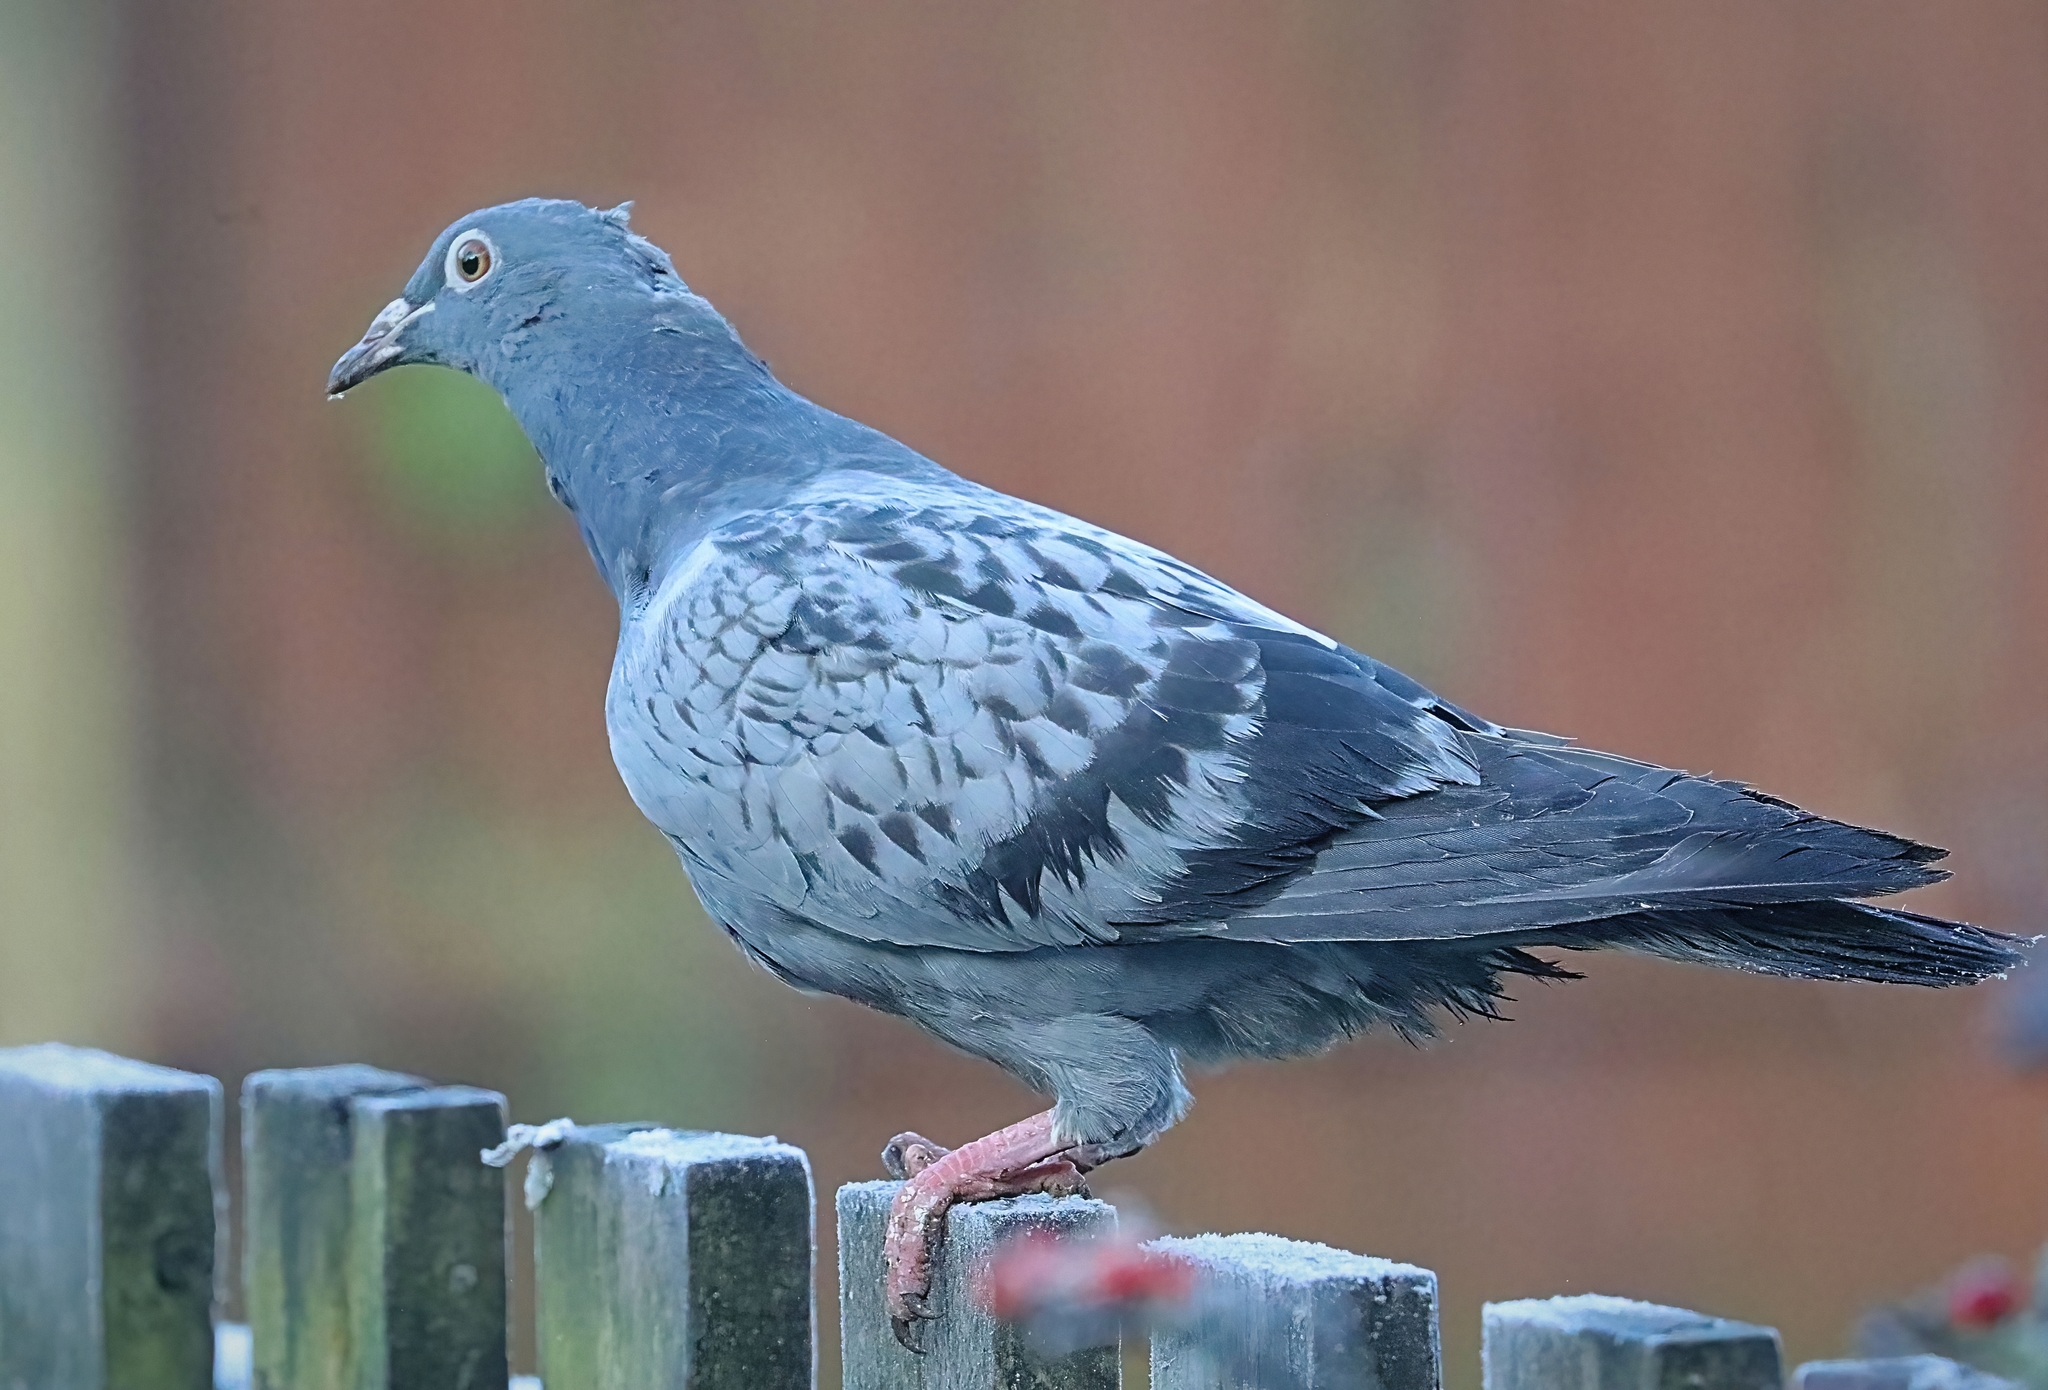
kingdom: Animalia
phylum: Chordata
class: Aves
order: Columbiformes
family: Columbidae
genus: Columba
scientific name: Columba livia
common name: Rock pigeon
